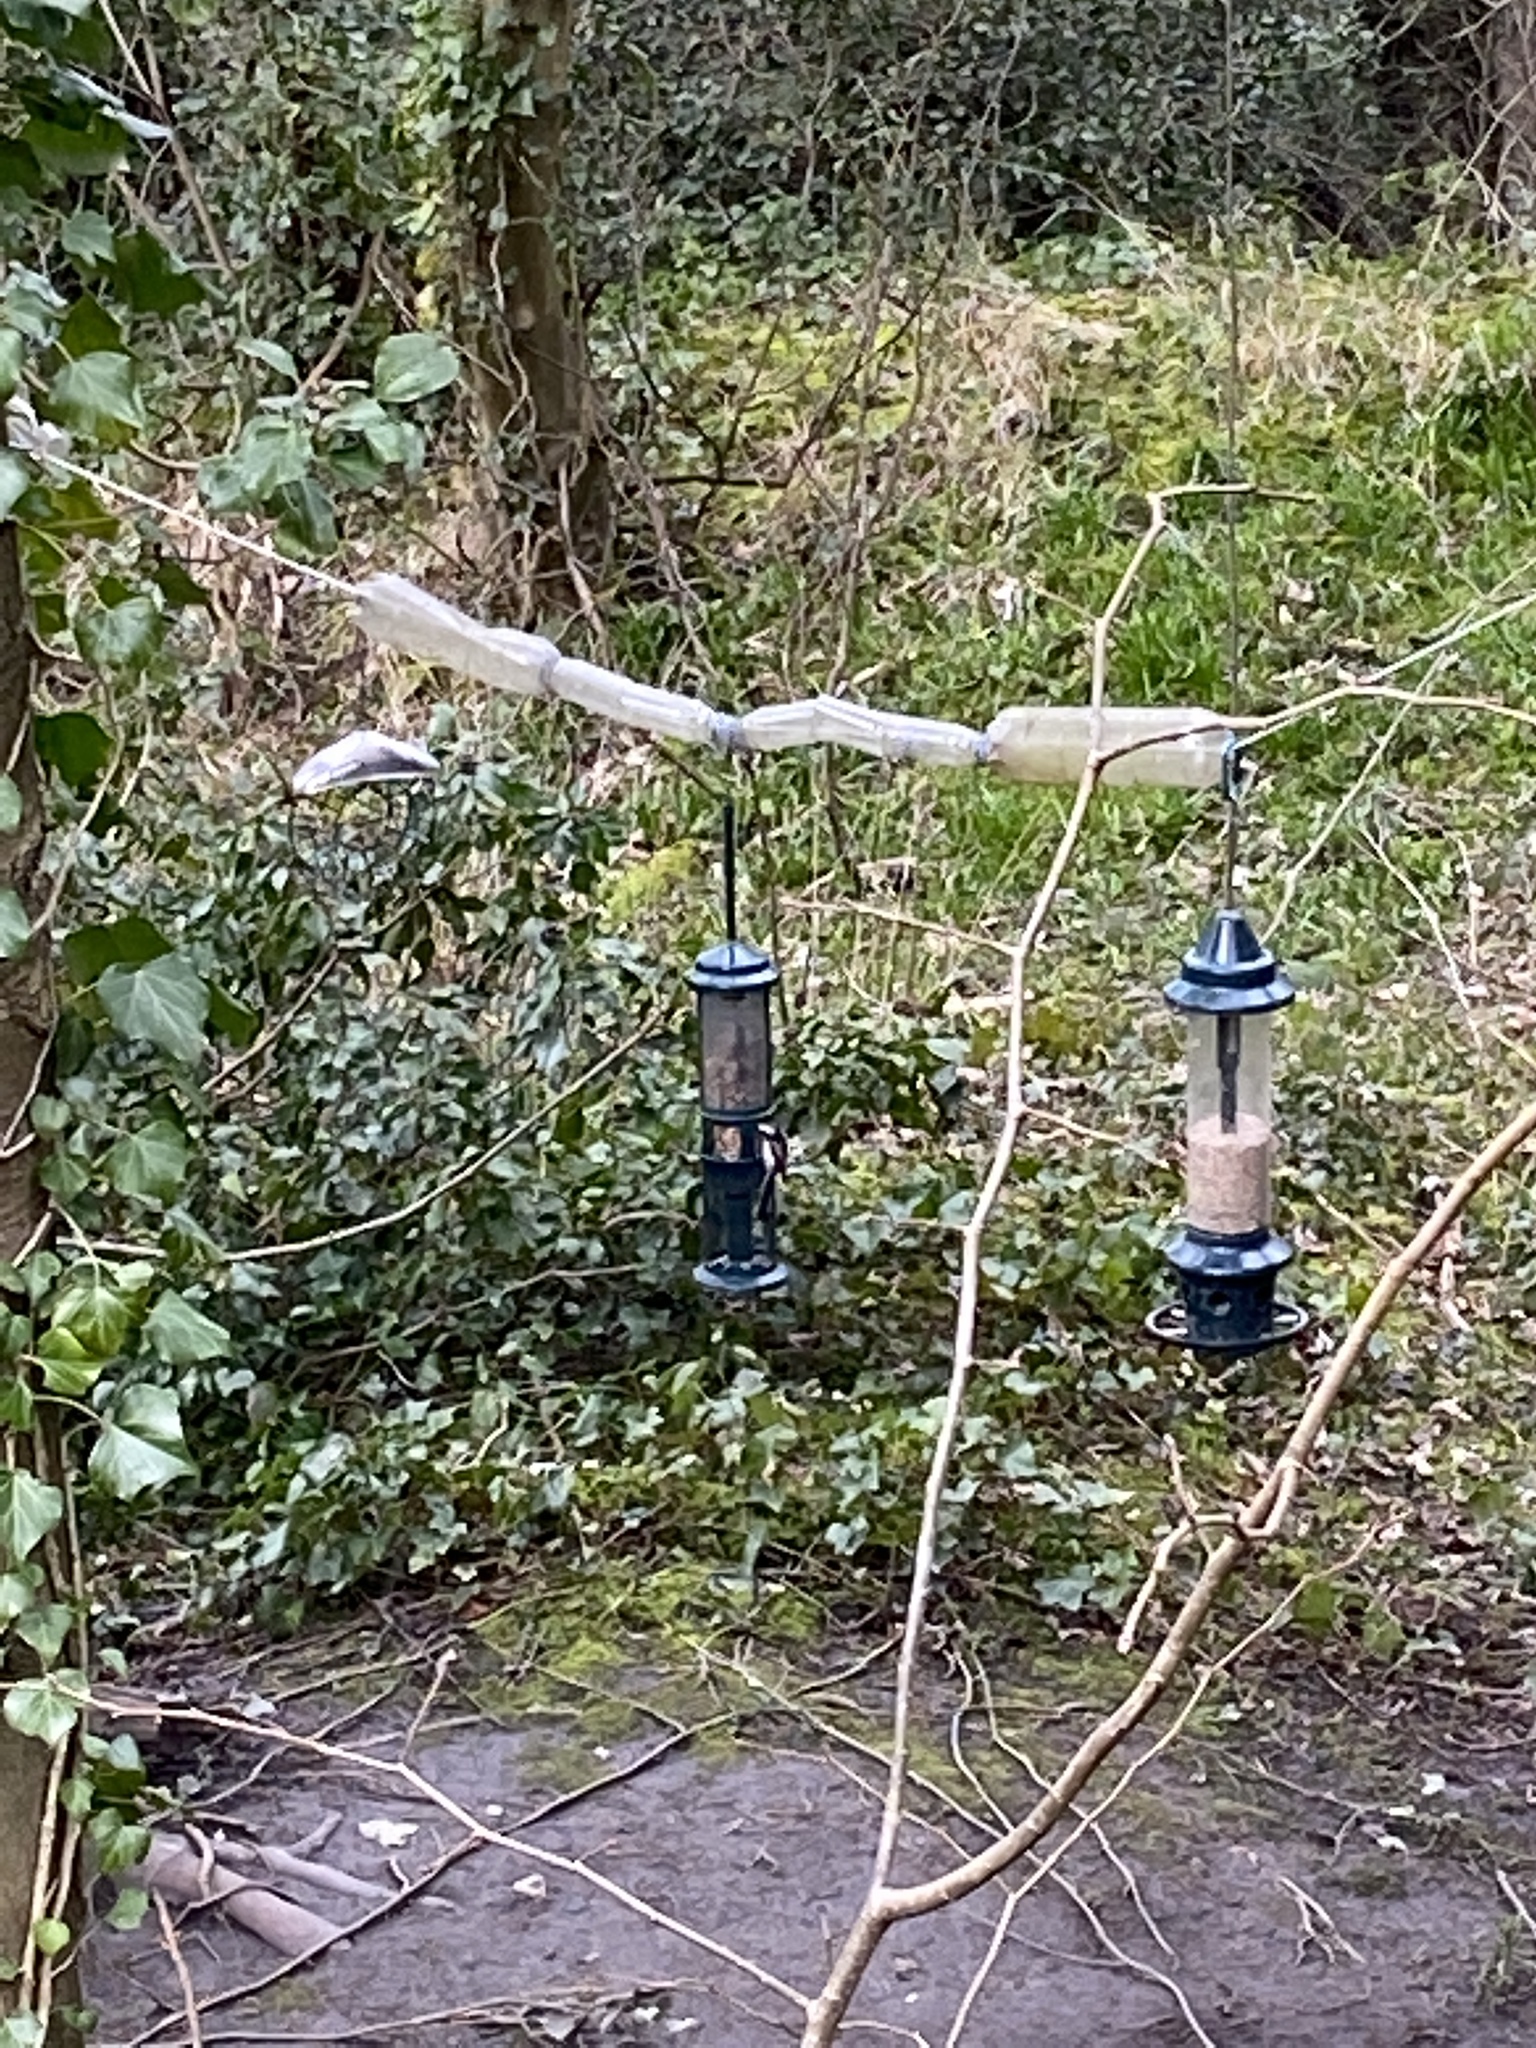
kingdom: Animalia
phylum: Chordata
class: Aves
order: Passeriformes
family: Aegithalidae
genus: Aegithalos
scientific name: Aegithalos caudatus
